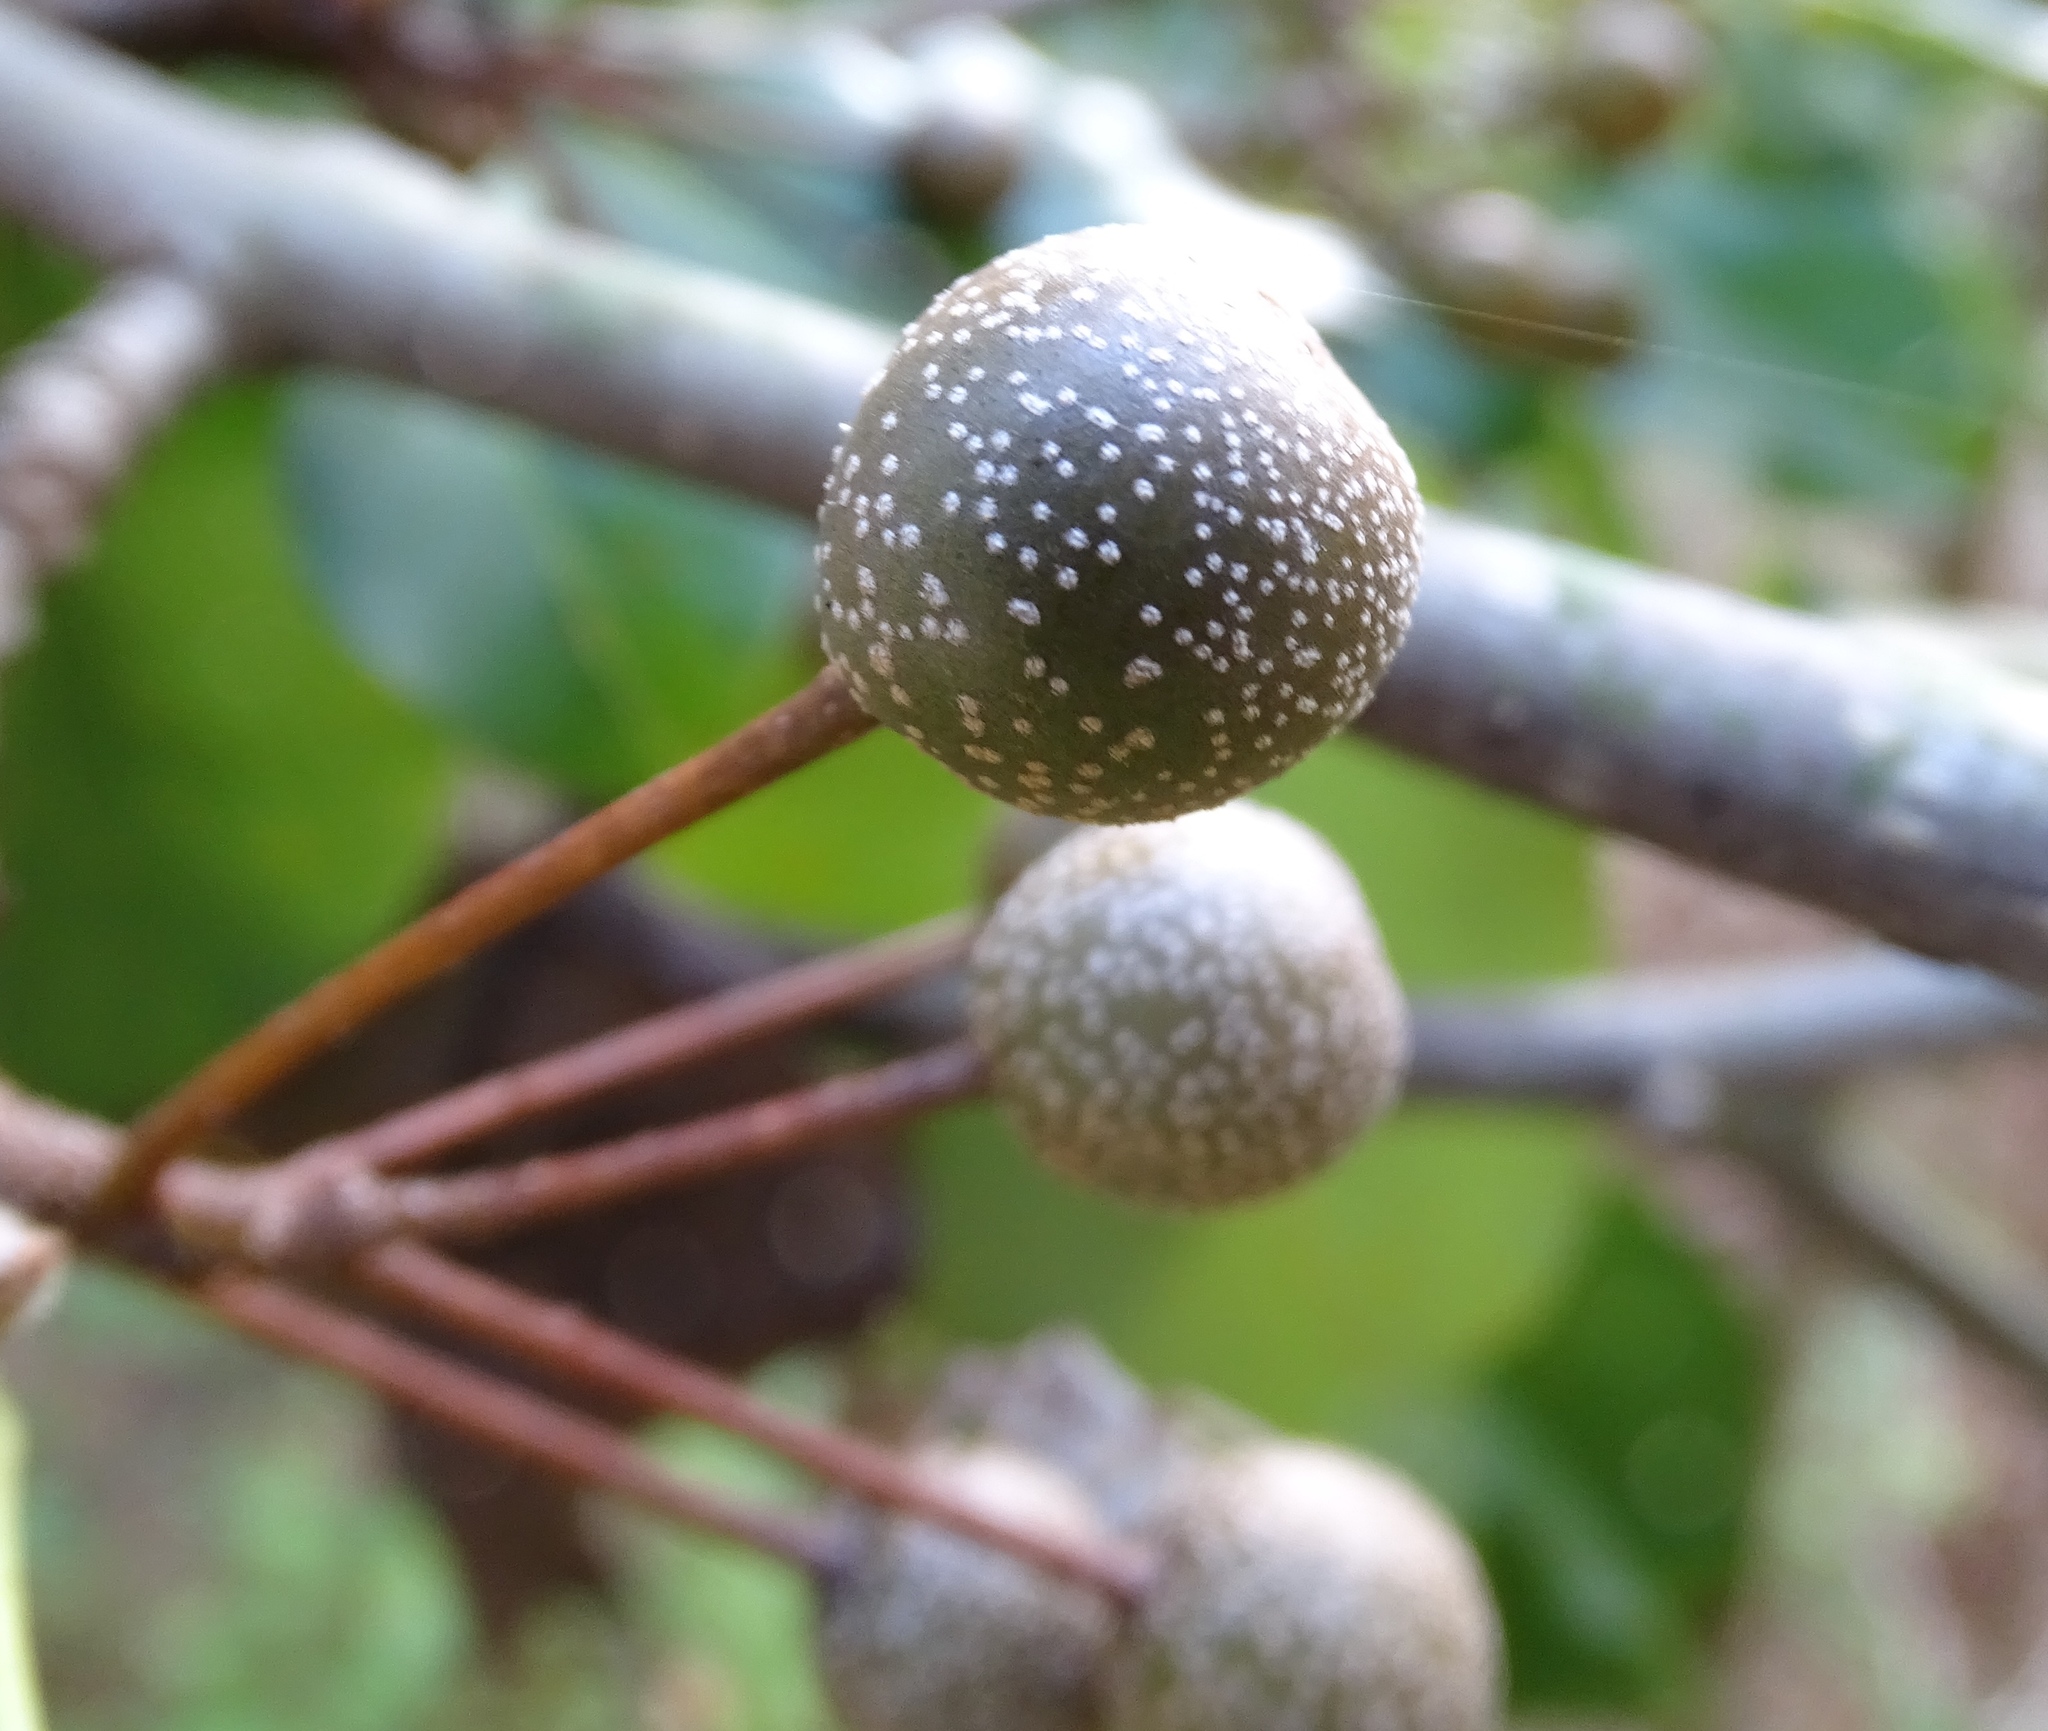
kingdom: Plantae
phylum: Tracheophyta
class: Magnoliopsida
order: Rosales
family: Rosaceae
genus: Pyrus
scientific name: Pyrus calleryana
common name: Callery pear
